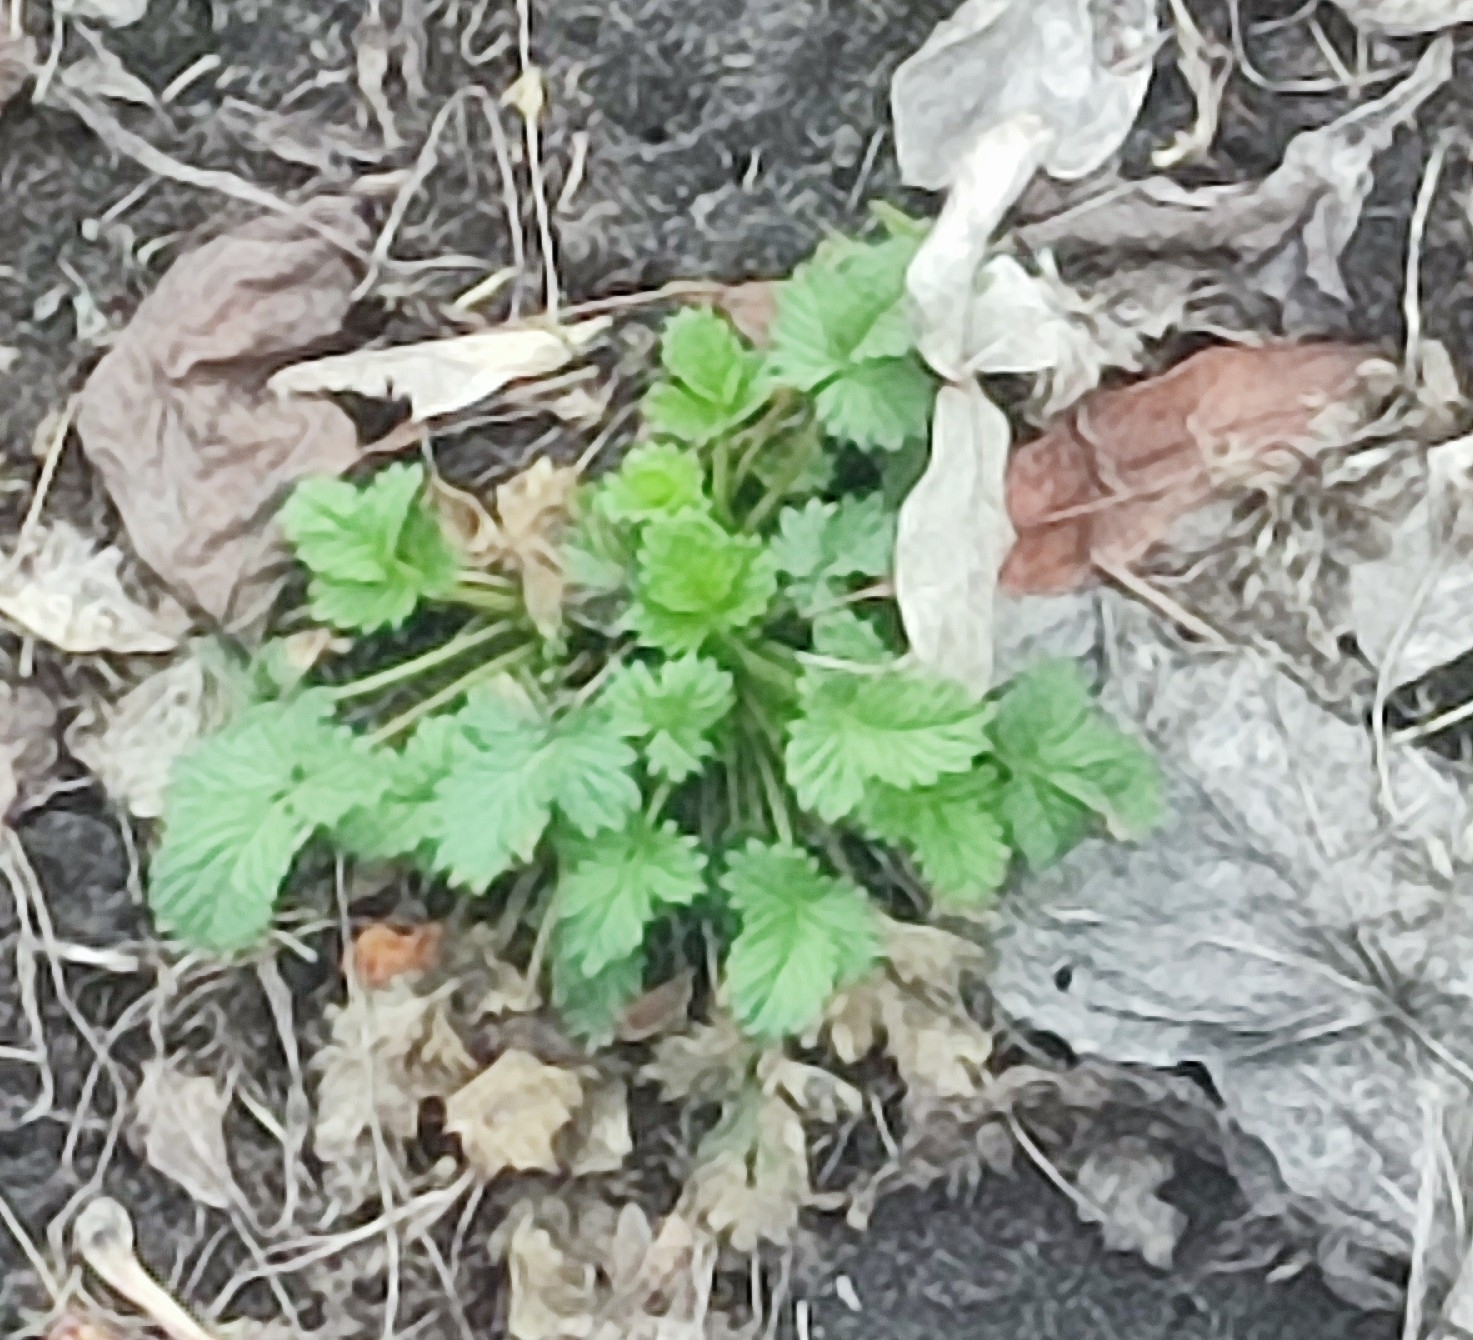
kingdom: Plantae
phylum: Tracheophyta
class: Magnoliopsida
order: Rosales
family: Rosaceae
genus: Potentilla
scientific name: Potentilla norvegica
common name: Ternate-leaved cinquefoil
